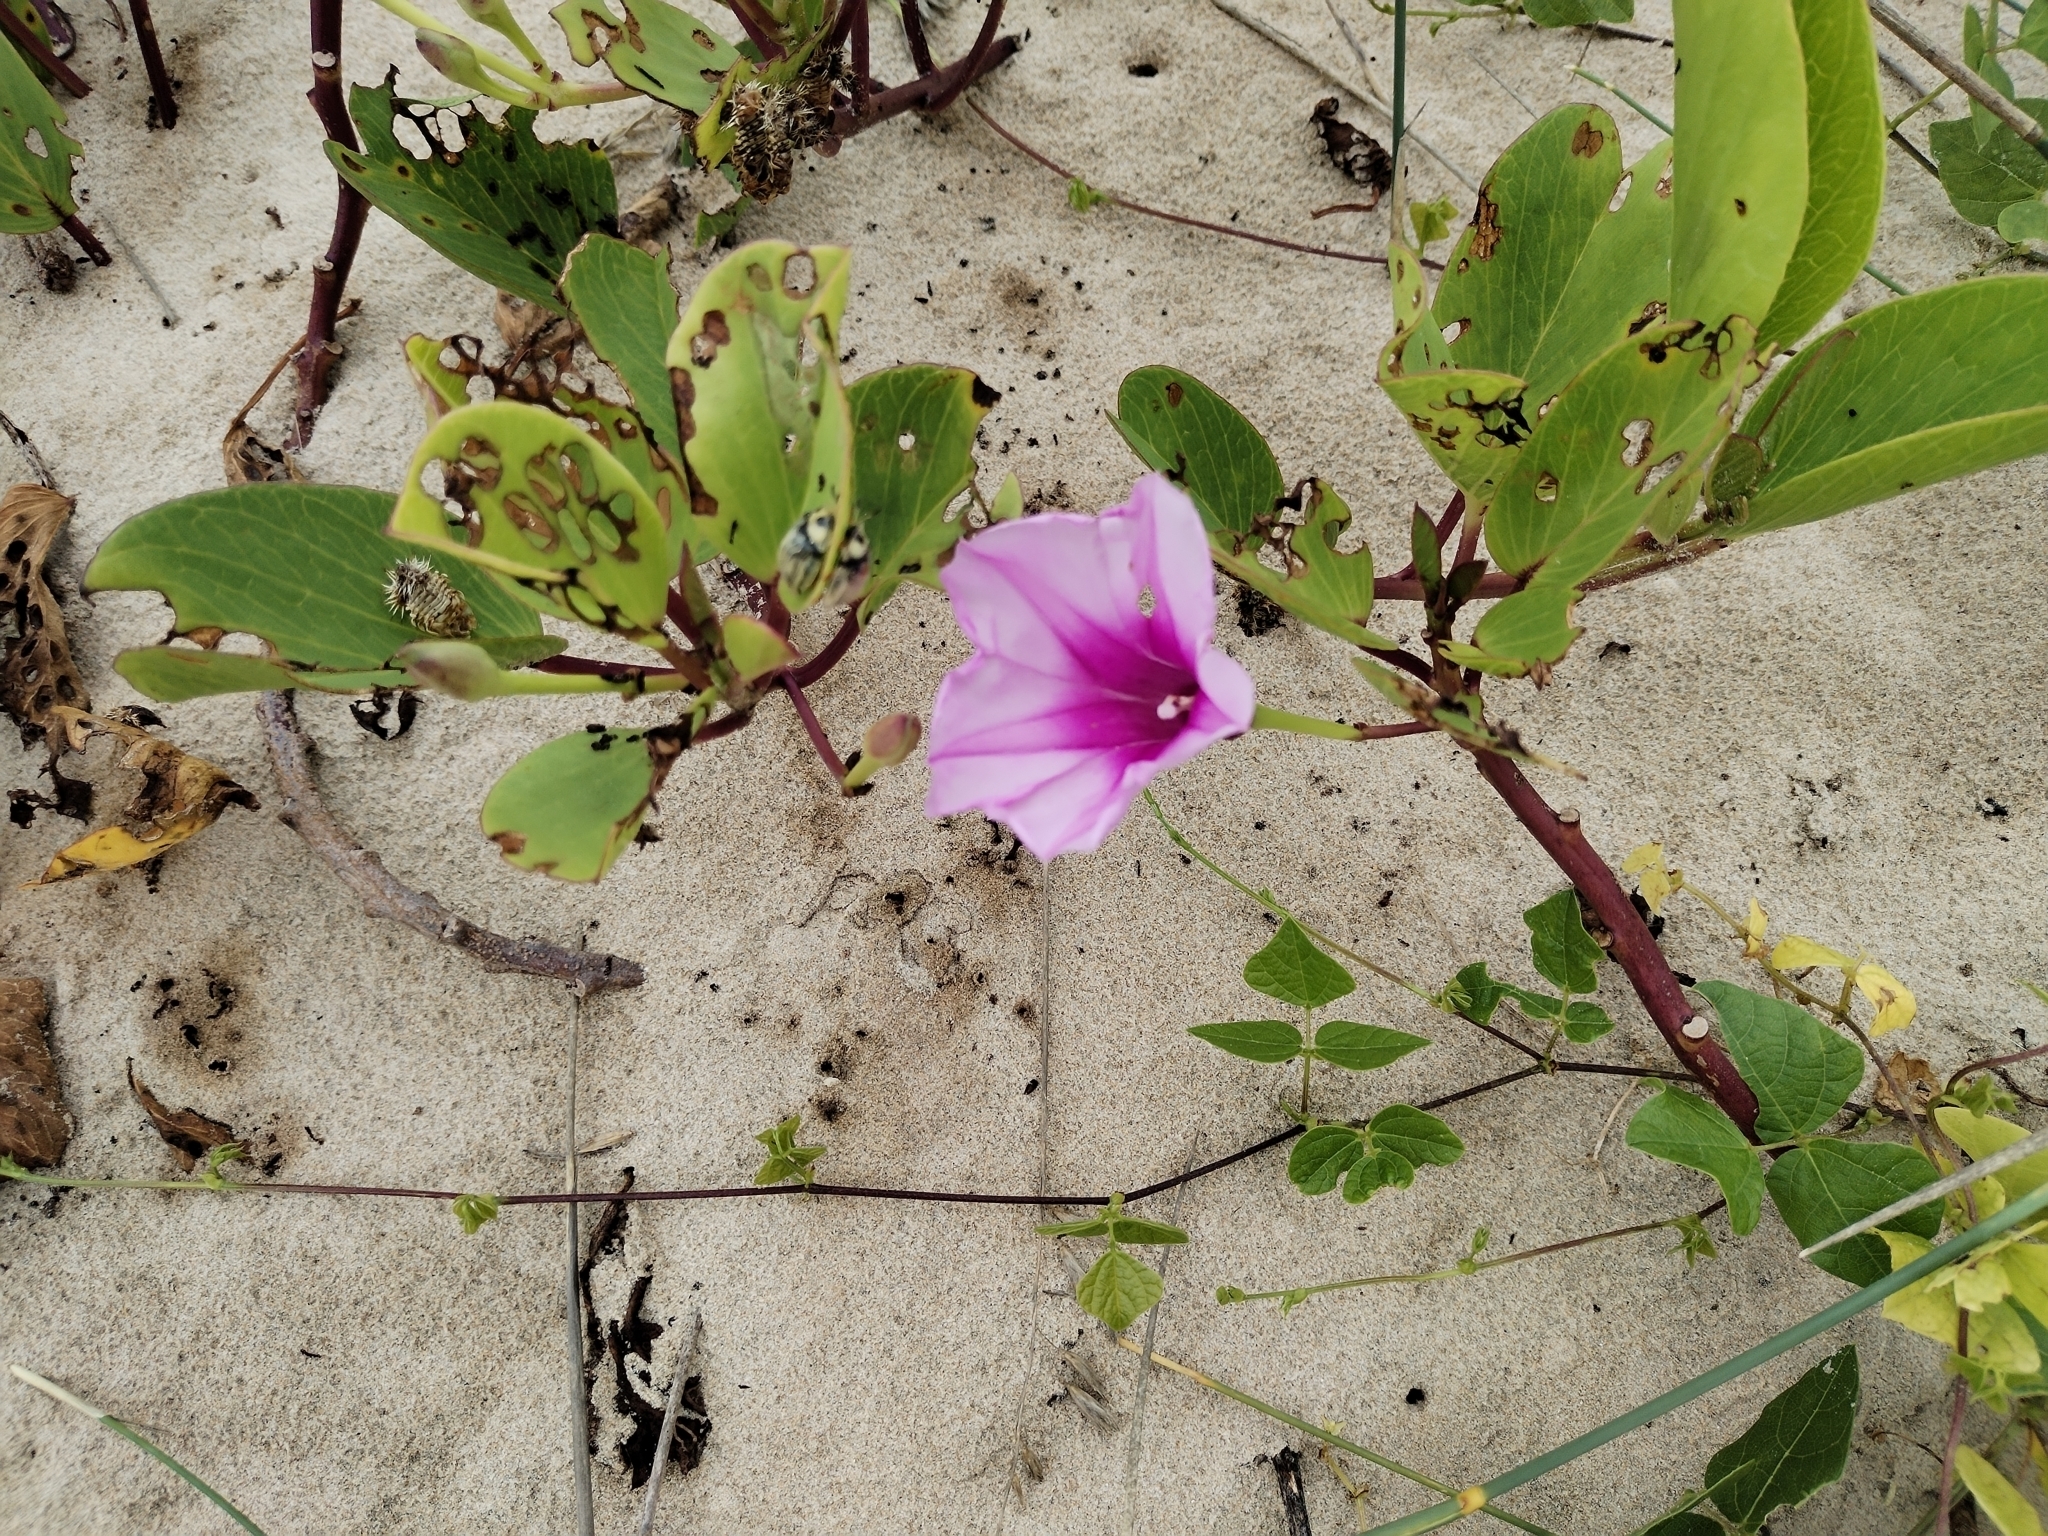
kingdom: Plantae
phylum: Tracheophyta
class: Magnoliopsida
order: Solanales
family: Convolvulaceae
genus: Ipomoea
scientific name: Ipomoea pes-caprae
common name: Beach morning glory
